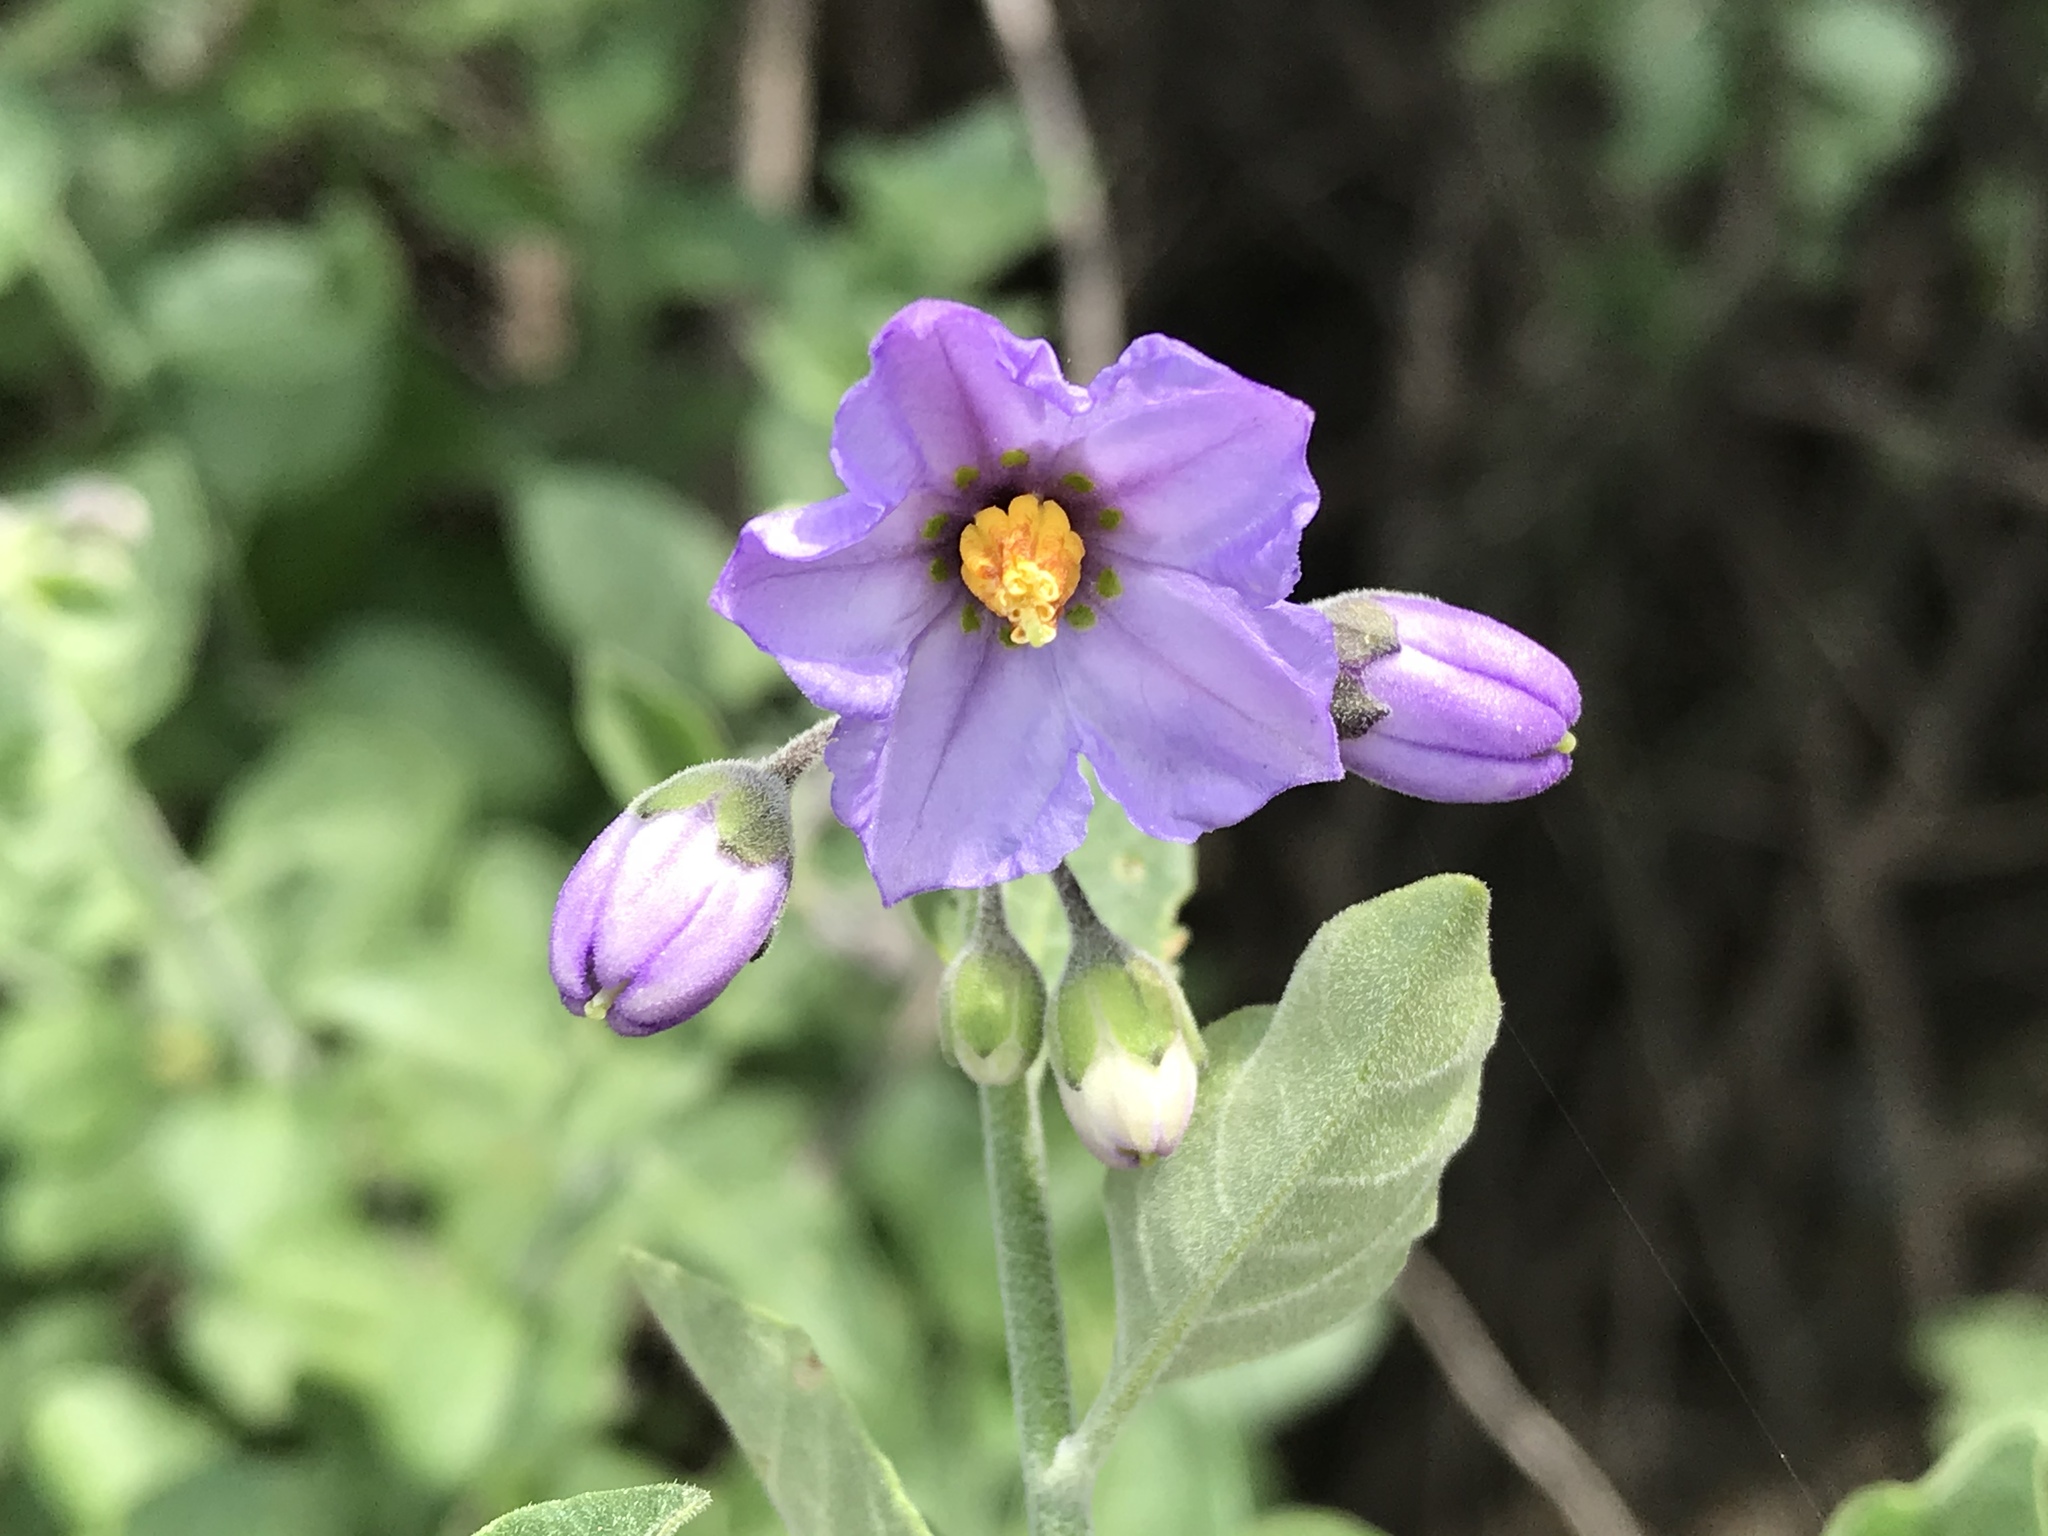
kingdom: Plantae
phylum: Tracheophyta
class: Magnoliopsida
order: Solanales
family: Solanaceae
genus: Solanum
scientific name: Solanum umbelliferum
